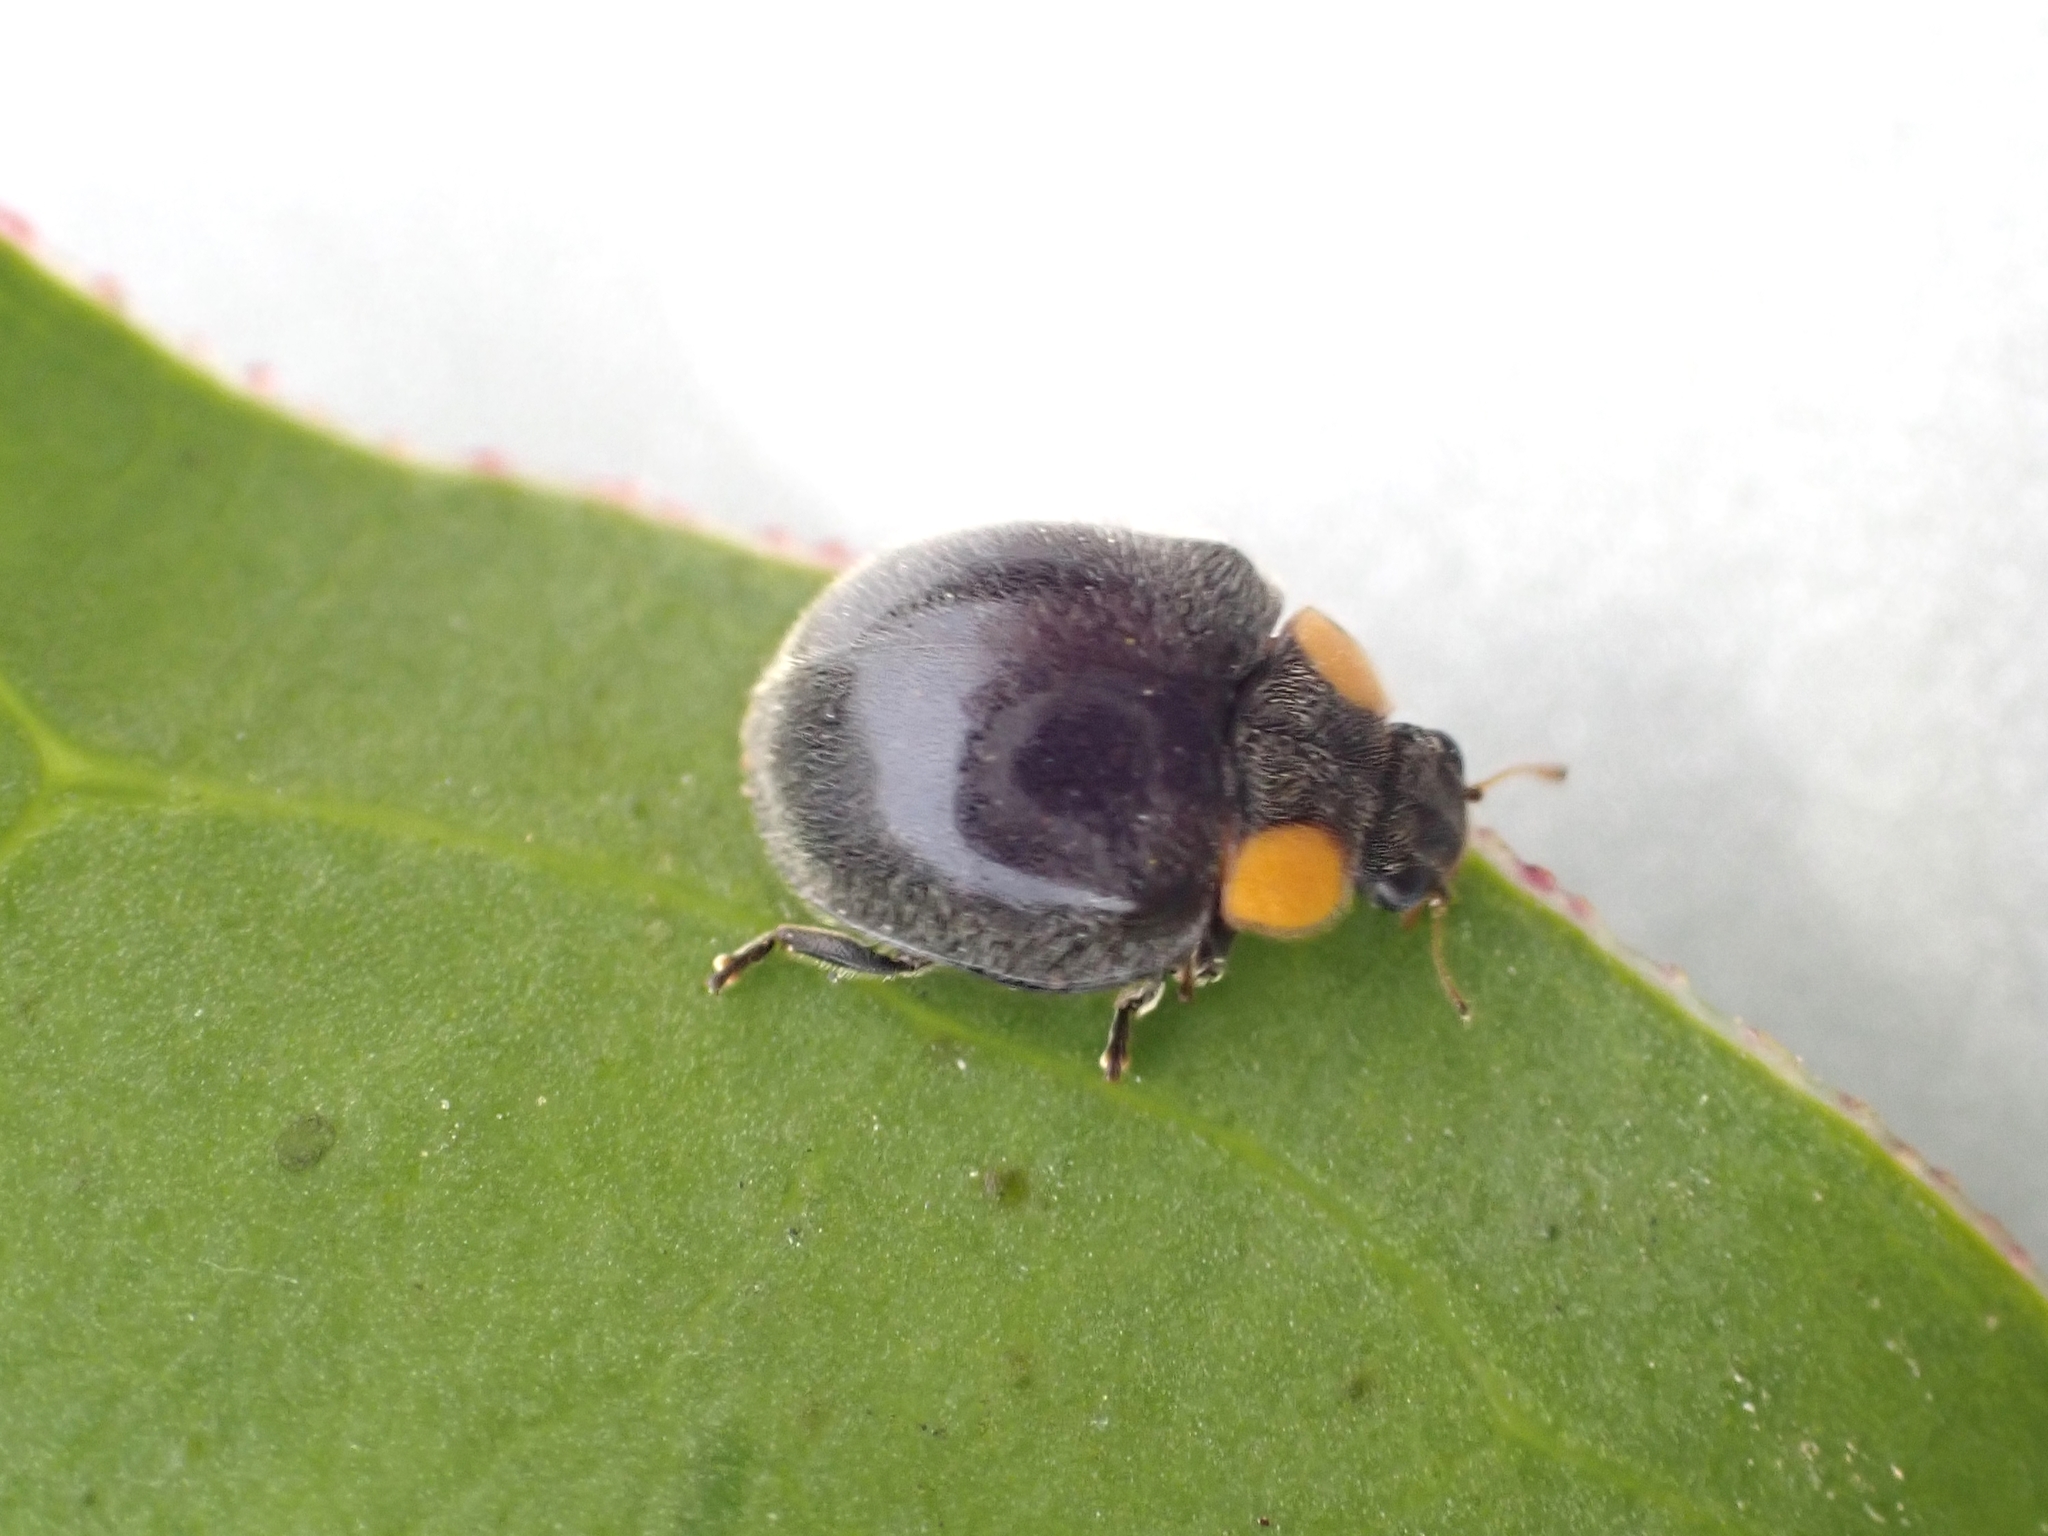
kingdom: Animalia
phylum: Arthropoda
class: Insecta
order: Coleoptera
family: Coccinellidae
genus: Scymnodes
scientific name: Scymnodes lividigaster
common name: Yellowshouldered lady beetle
